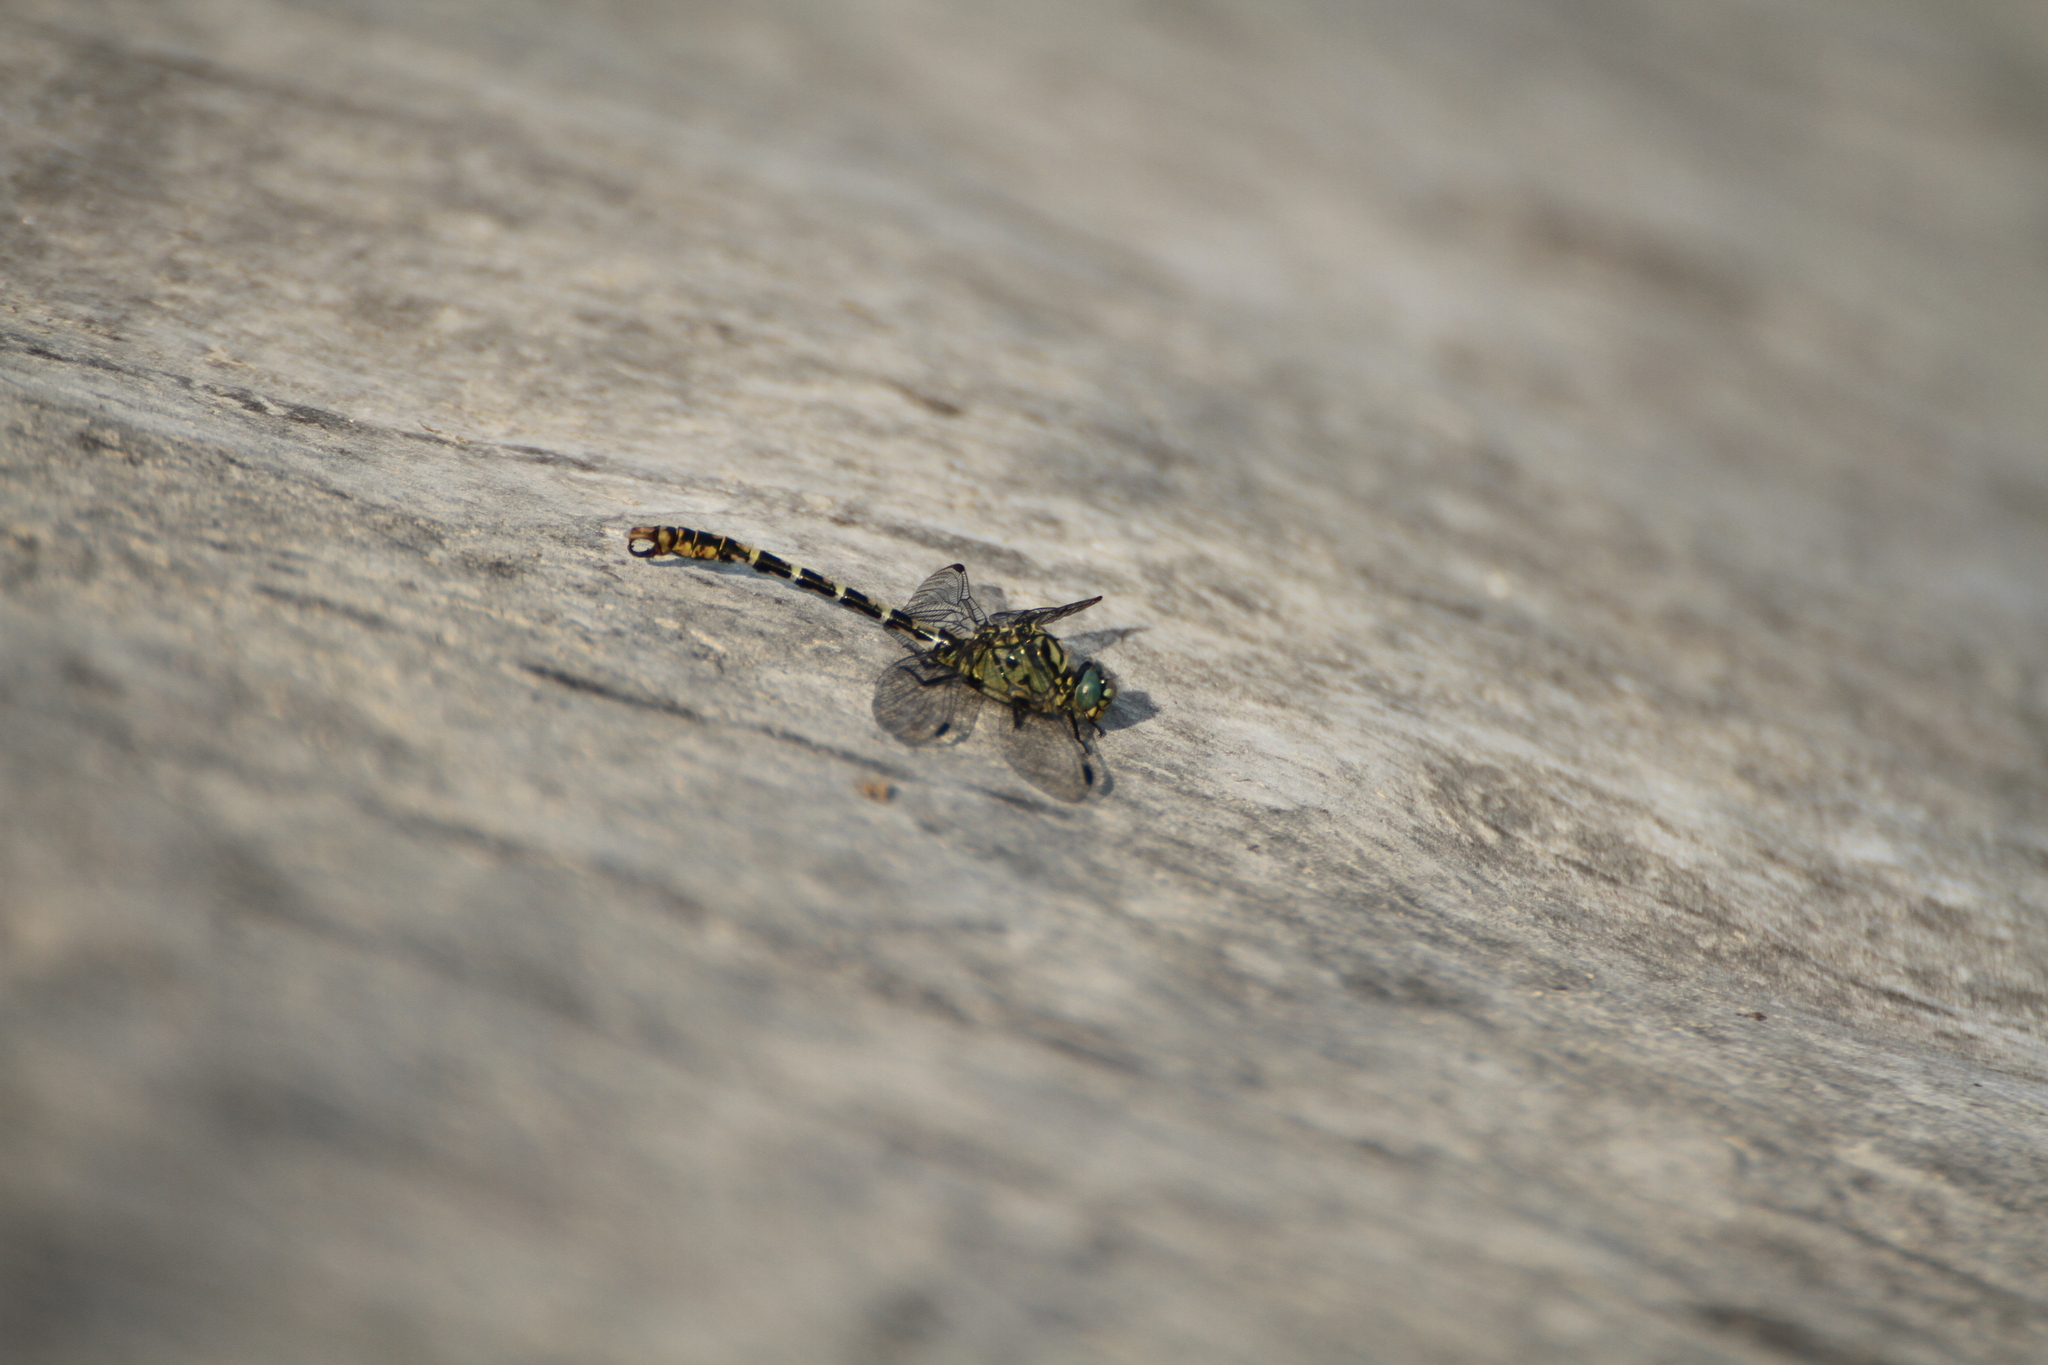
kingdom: Animalia
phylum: Arthropoda
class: Insecta
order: Odonata
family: Gomphidae
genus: Onychogomphus
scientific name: Onychogomphus forcipatus
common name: Small pincertail
